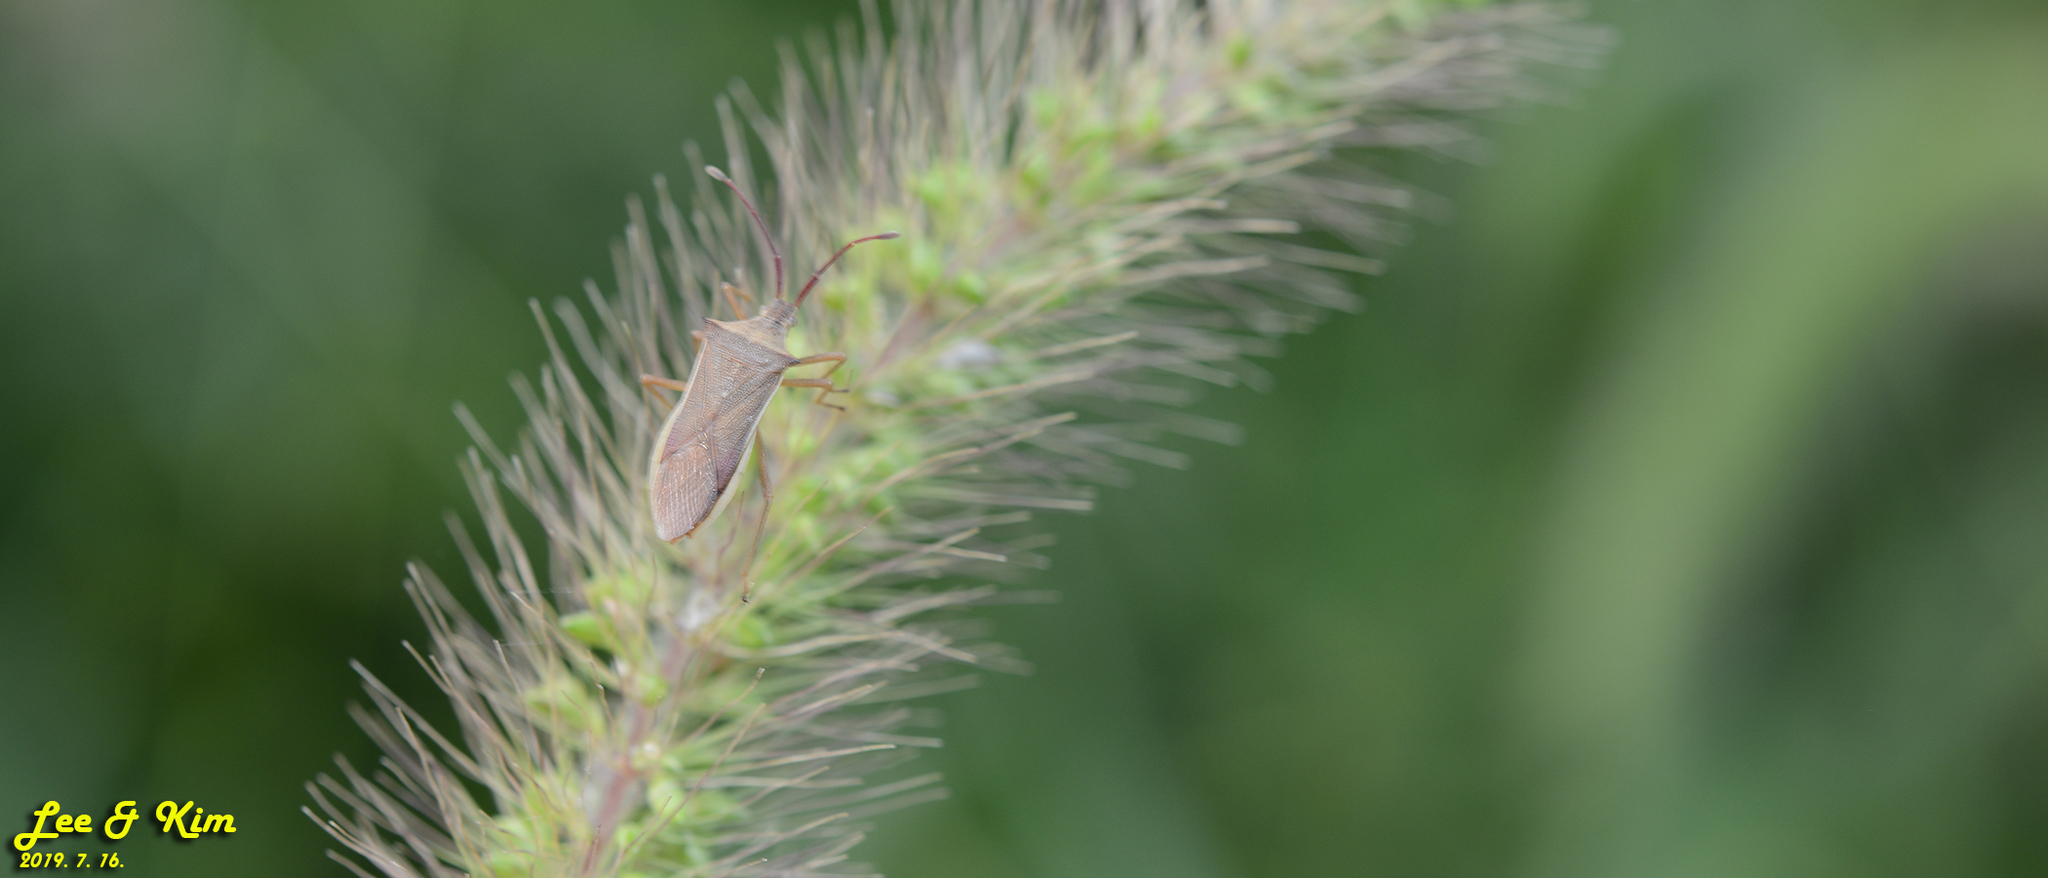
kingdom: Animalia
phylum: Arthropoda
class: Insecta
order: Hemiptera
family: Coreidae
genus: Cletus
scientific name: Cletus punctiger
